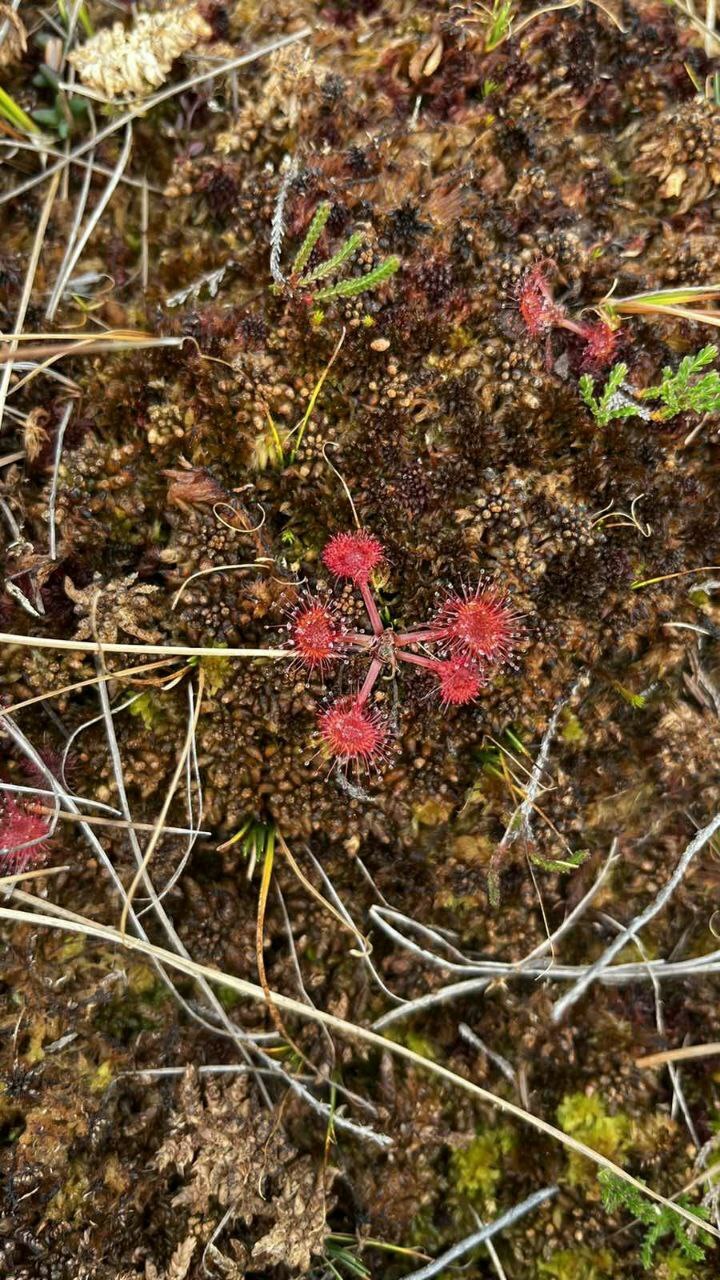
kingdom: Plantae
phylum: Tracheophyta
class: Magnoliopsida
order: Caryophyllales
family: Droseraceae
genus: Drosera
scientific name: Drosera rotundifolia
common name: Round-leaved sundew
